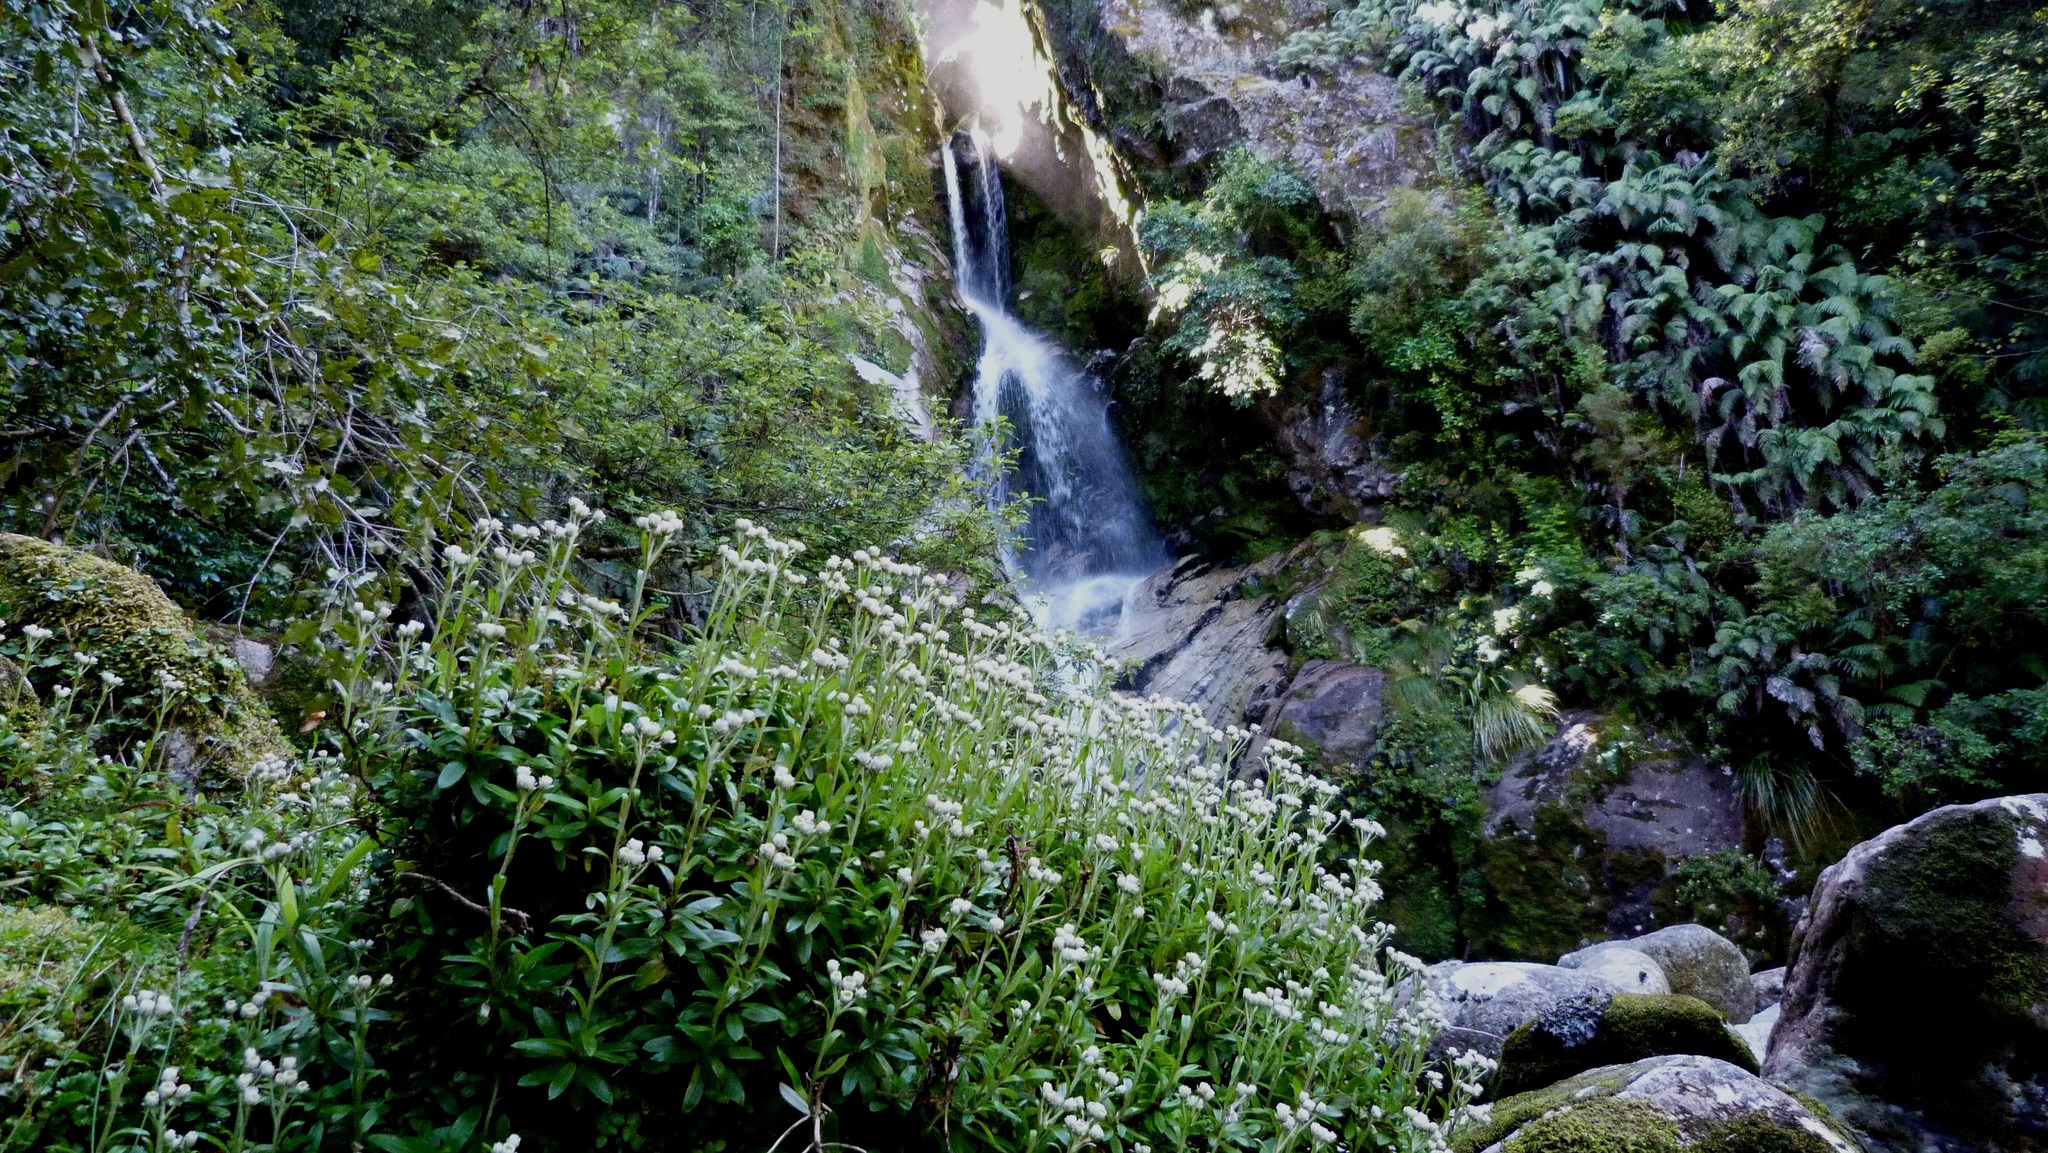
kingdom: Plantae
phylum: Tracheophyta
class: Magnoliopsida
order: Asterales
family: Asteraceae
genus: Anaphalioides
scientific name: Anaphalioides trinervis
